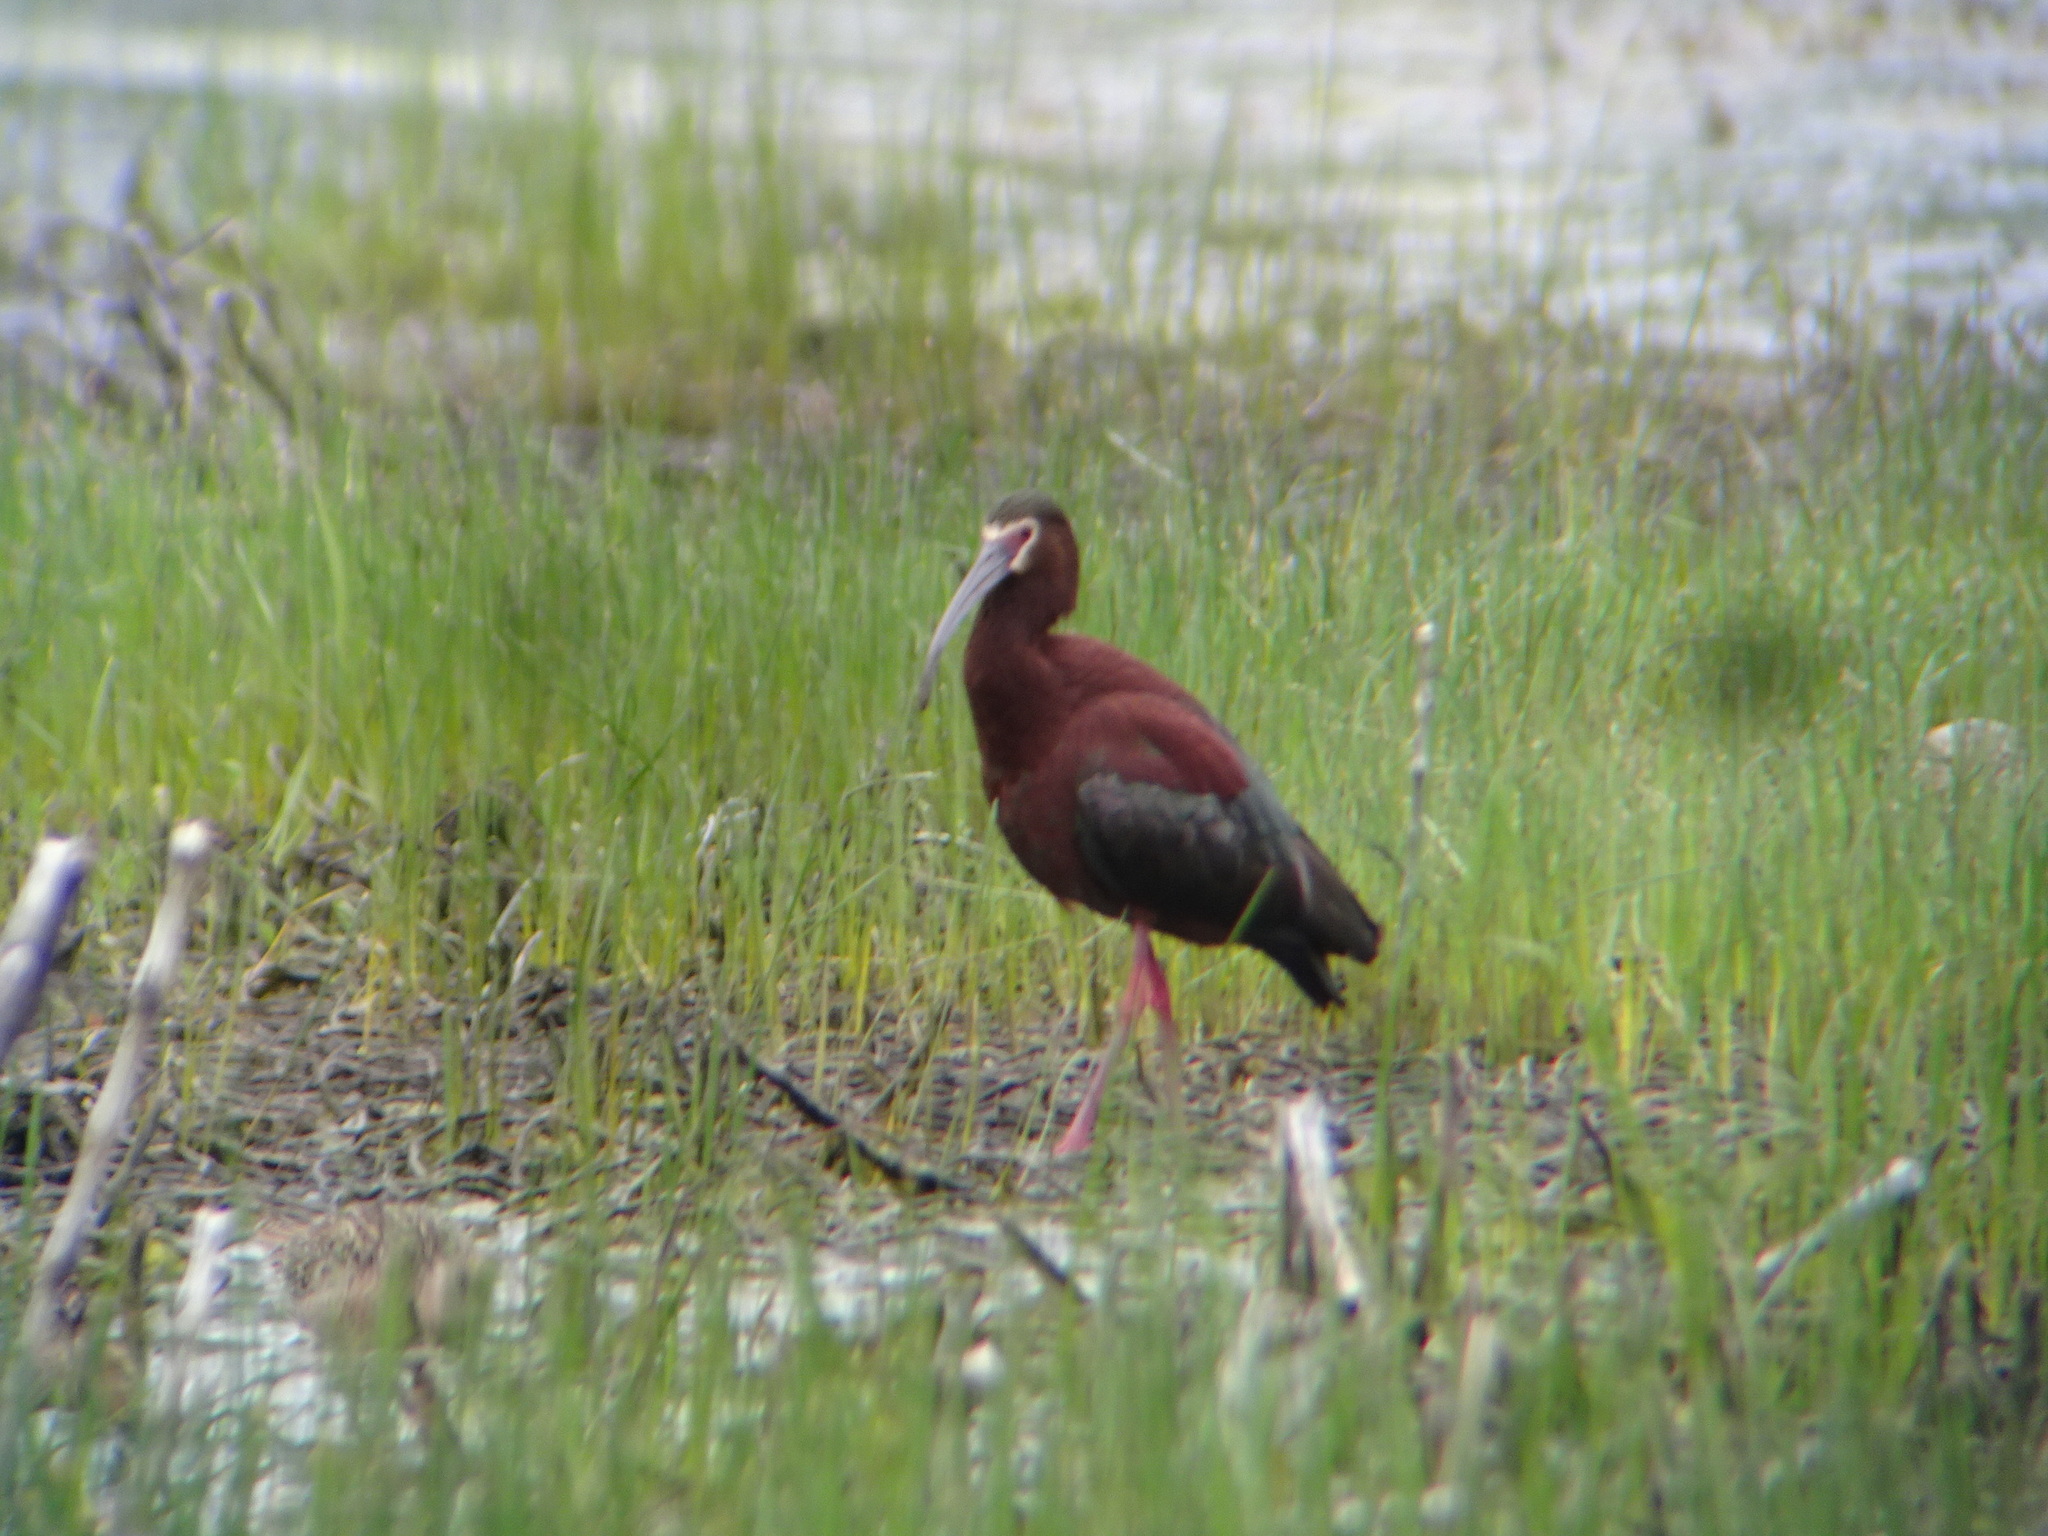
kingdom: Animalia
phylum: Chordata
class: Aves
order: Pelecaniformes
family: Threskiornithidae
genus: Plegadis
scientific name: Plegadis chihi
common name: White-faced ibis
